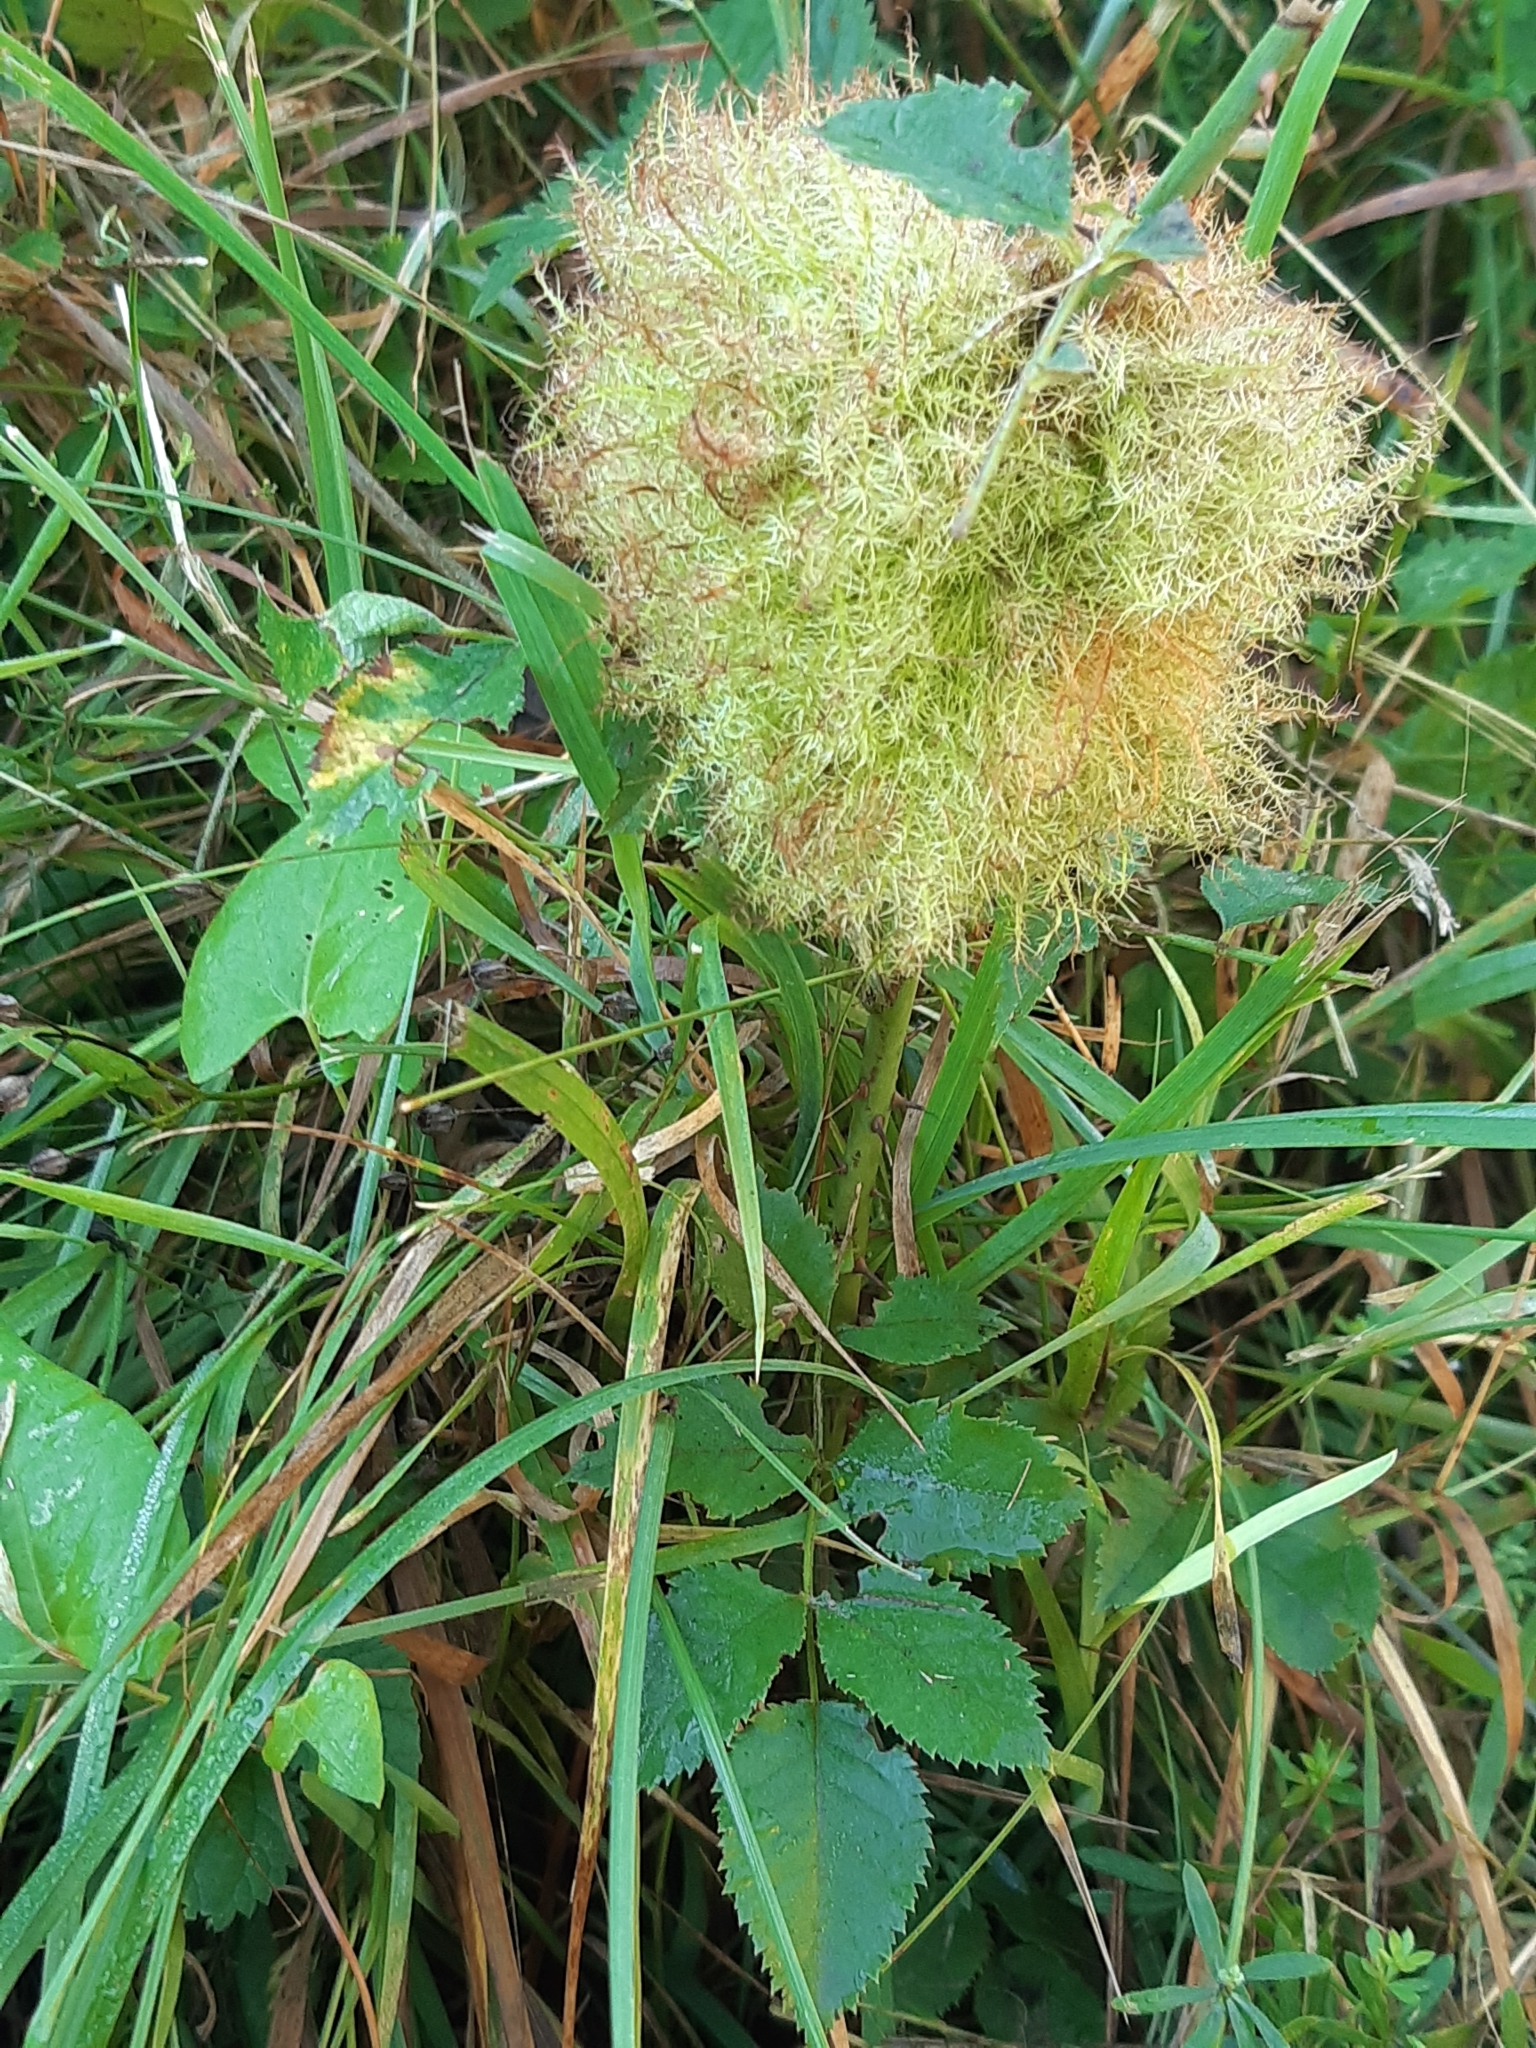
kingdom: Animalia
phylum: Arthropoda
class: Insecta
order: Hymenoptera
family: Cynipidae
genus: Diplolepis
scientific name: Diplolepis rosae
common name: Bedeguar gall
